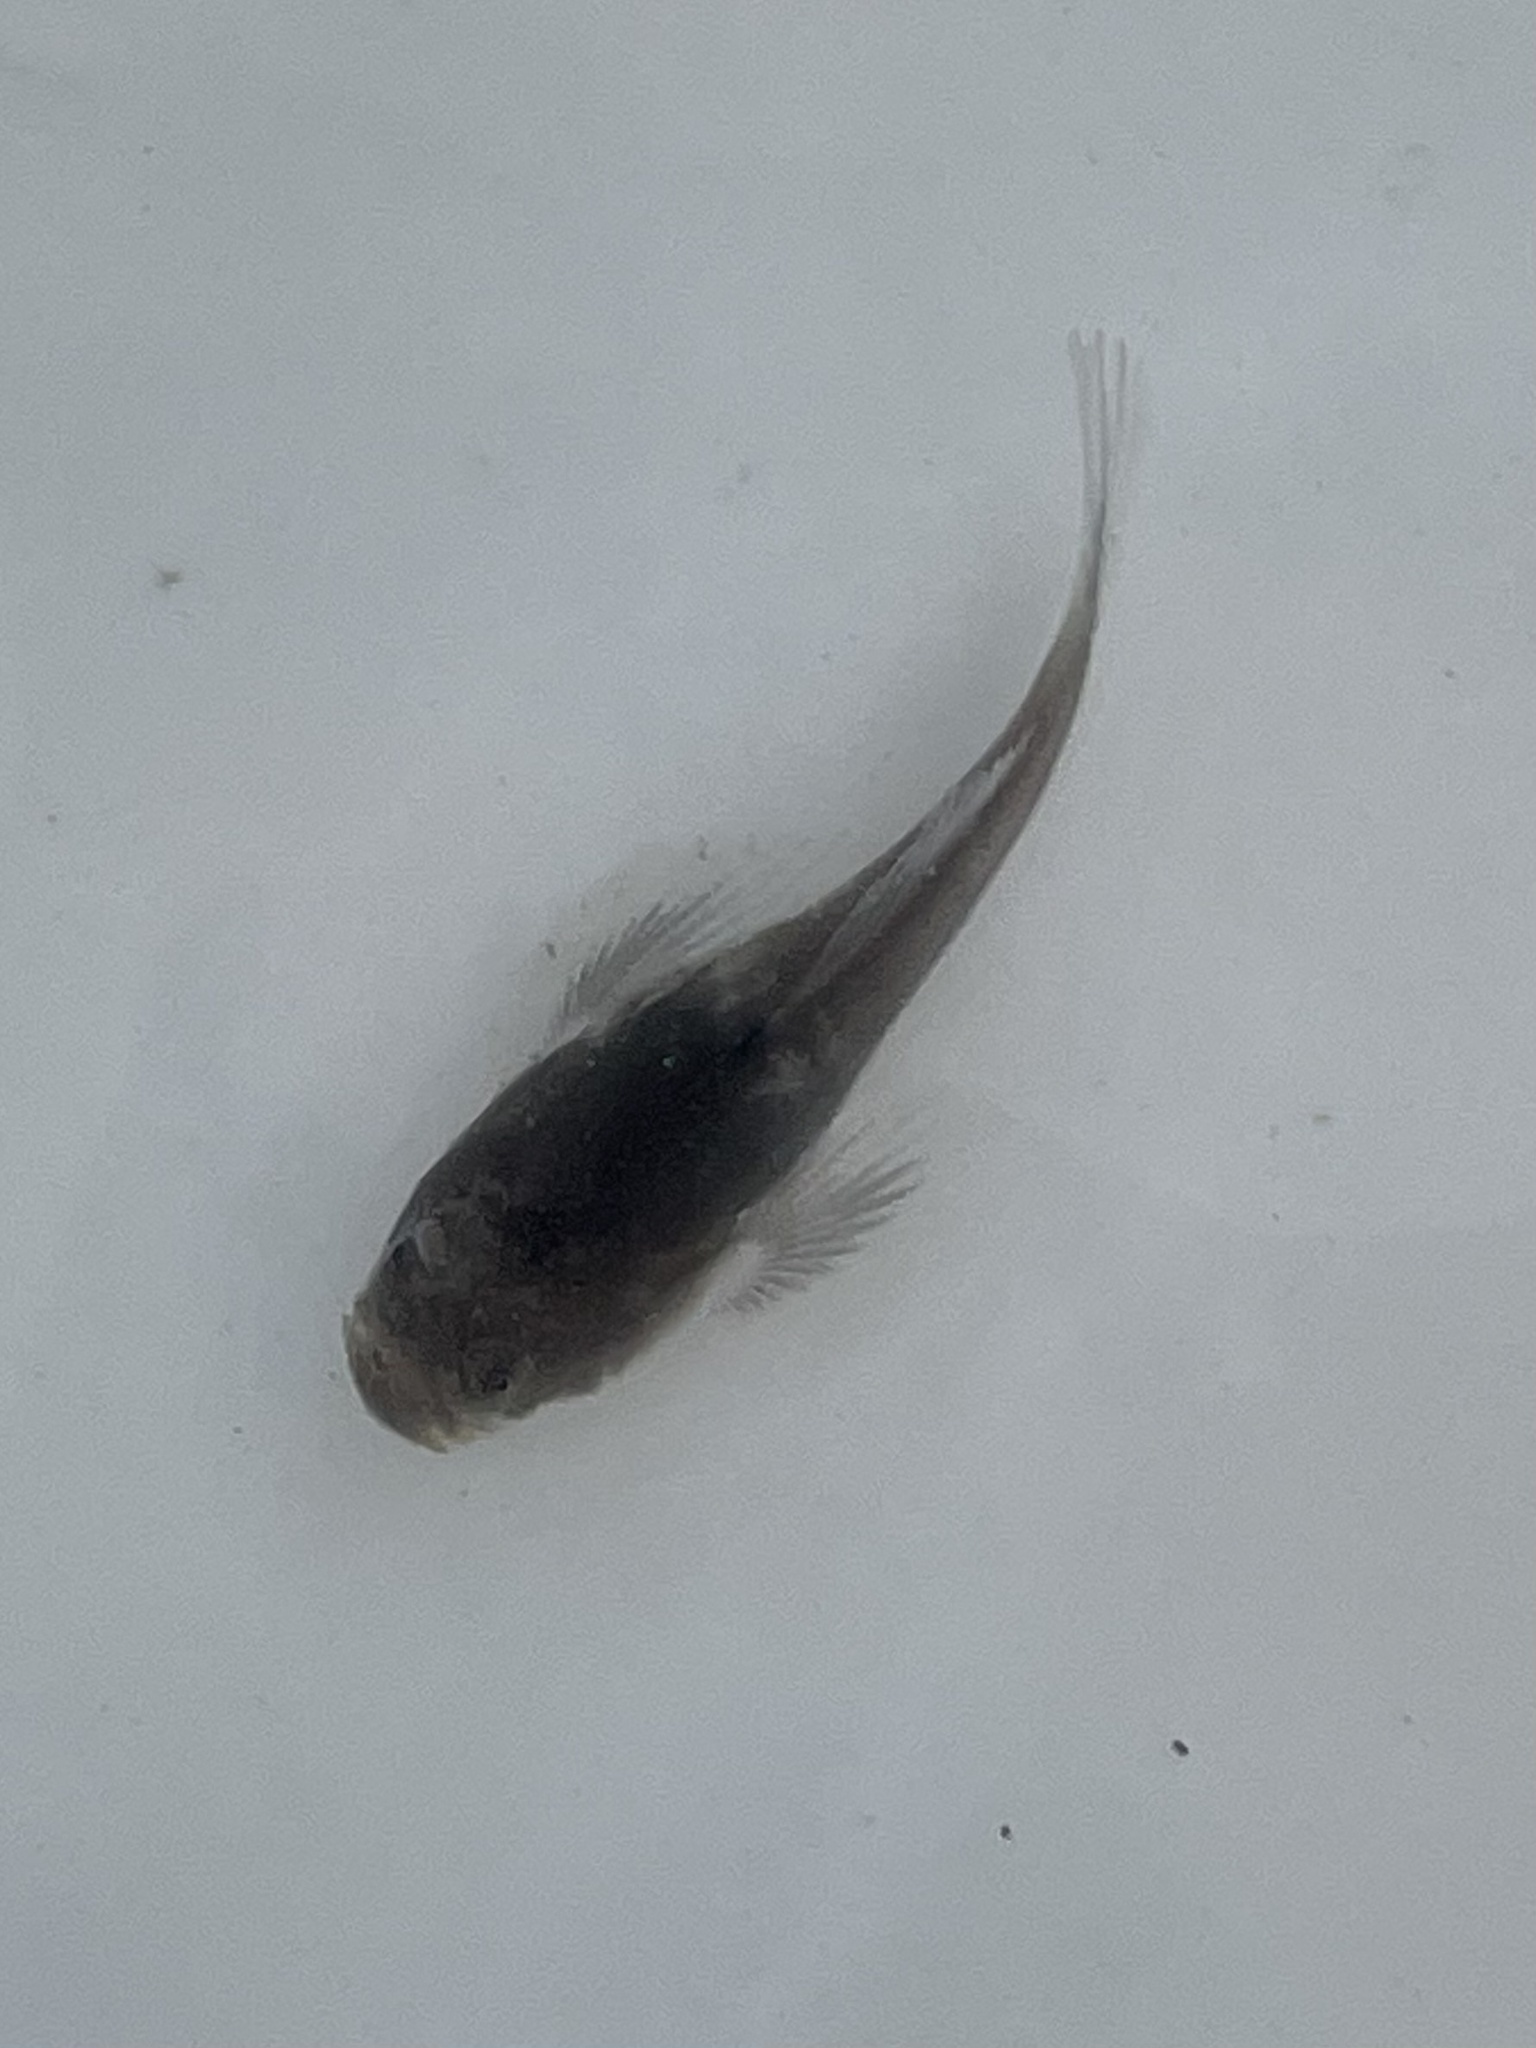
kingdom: Animalia
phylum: Chordata
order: Perciformes
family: Uranoscopidae
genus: Astroscopus
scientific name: Astroscopus y-graecum
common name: Southern stargazer
